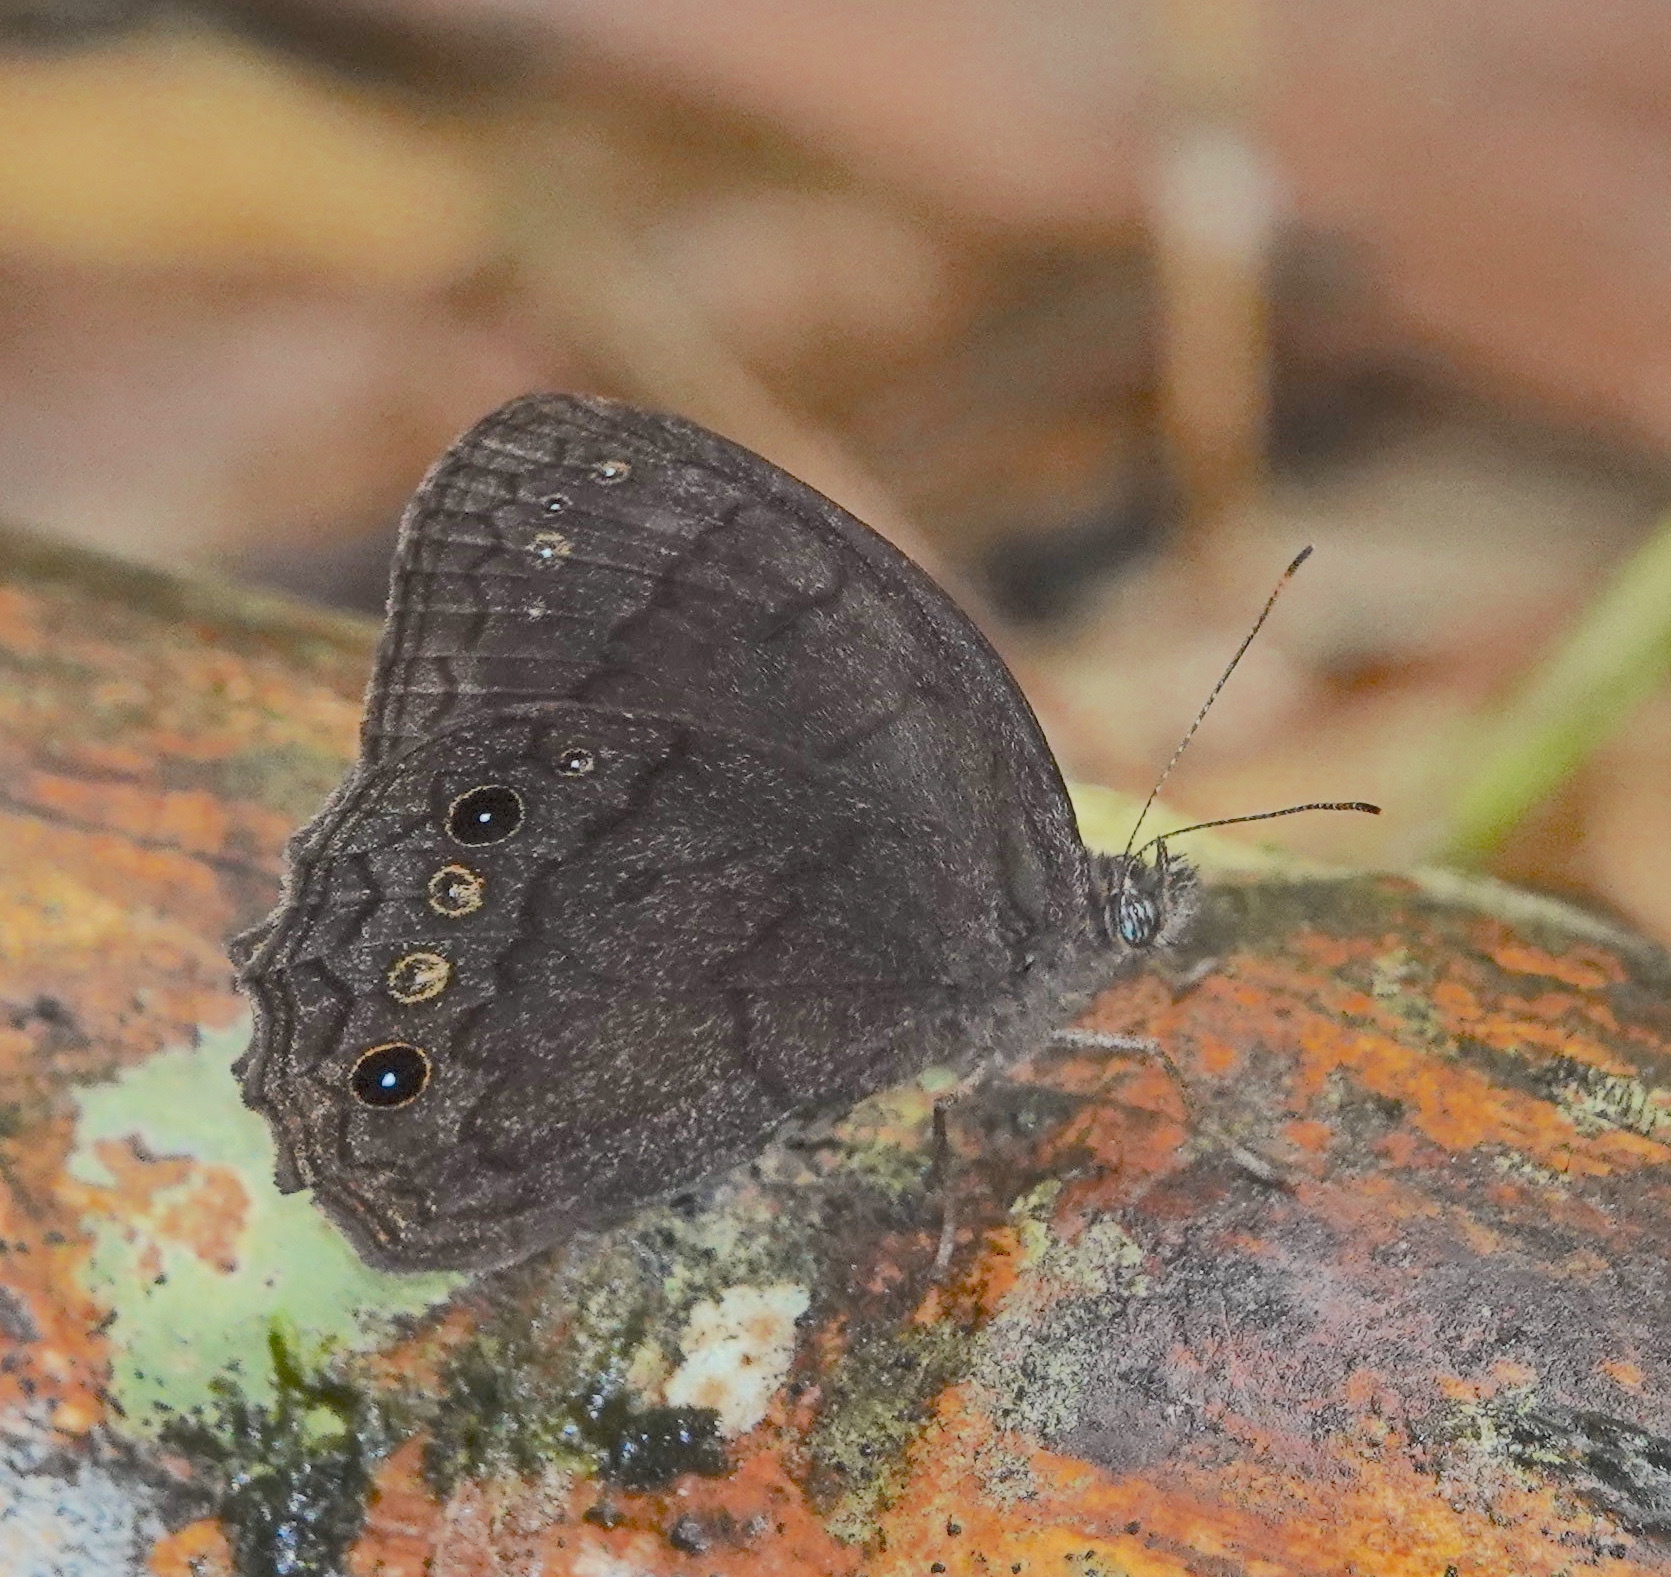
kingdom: Animalia
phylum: Arthropoda
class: Insecta
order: Lepidoptera
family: Nymphalidae
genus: Harjesia
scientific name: Harjesia obscura
